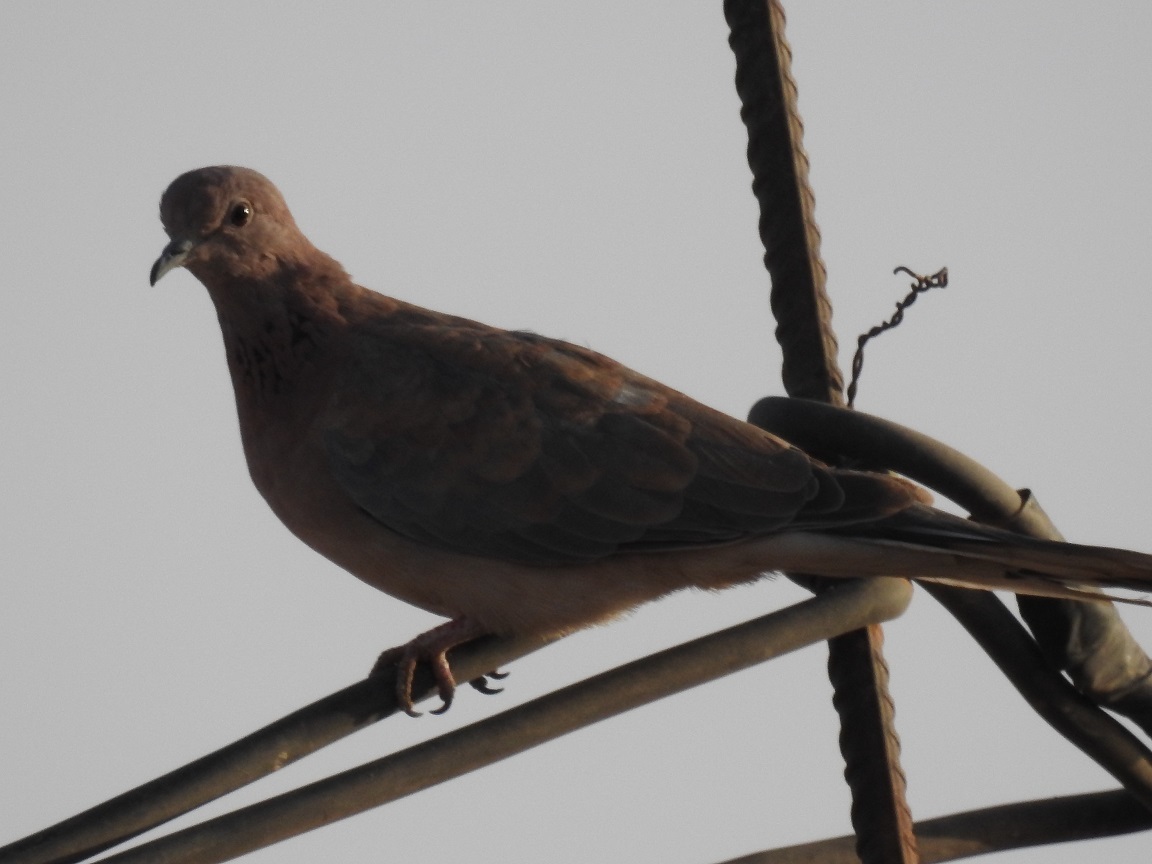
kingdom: Animalia
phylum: Chordata
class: Aves
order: Columbiformes
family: Columbidae
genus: Spilopelia
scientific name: Spilopelia senegalensis
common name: Laughing dove
